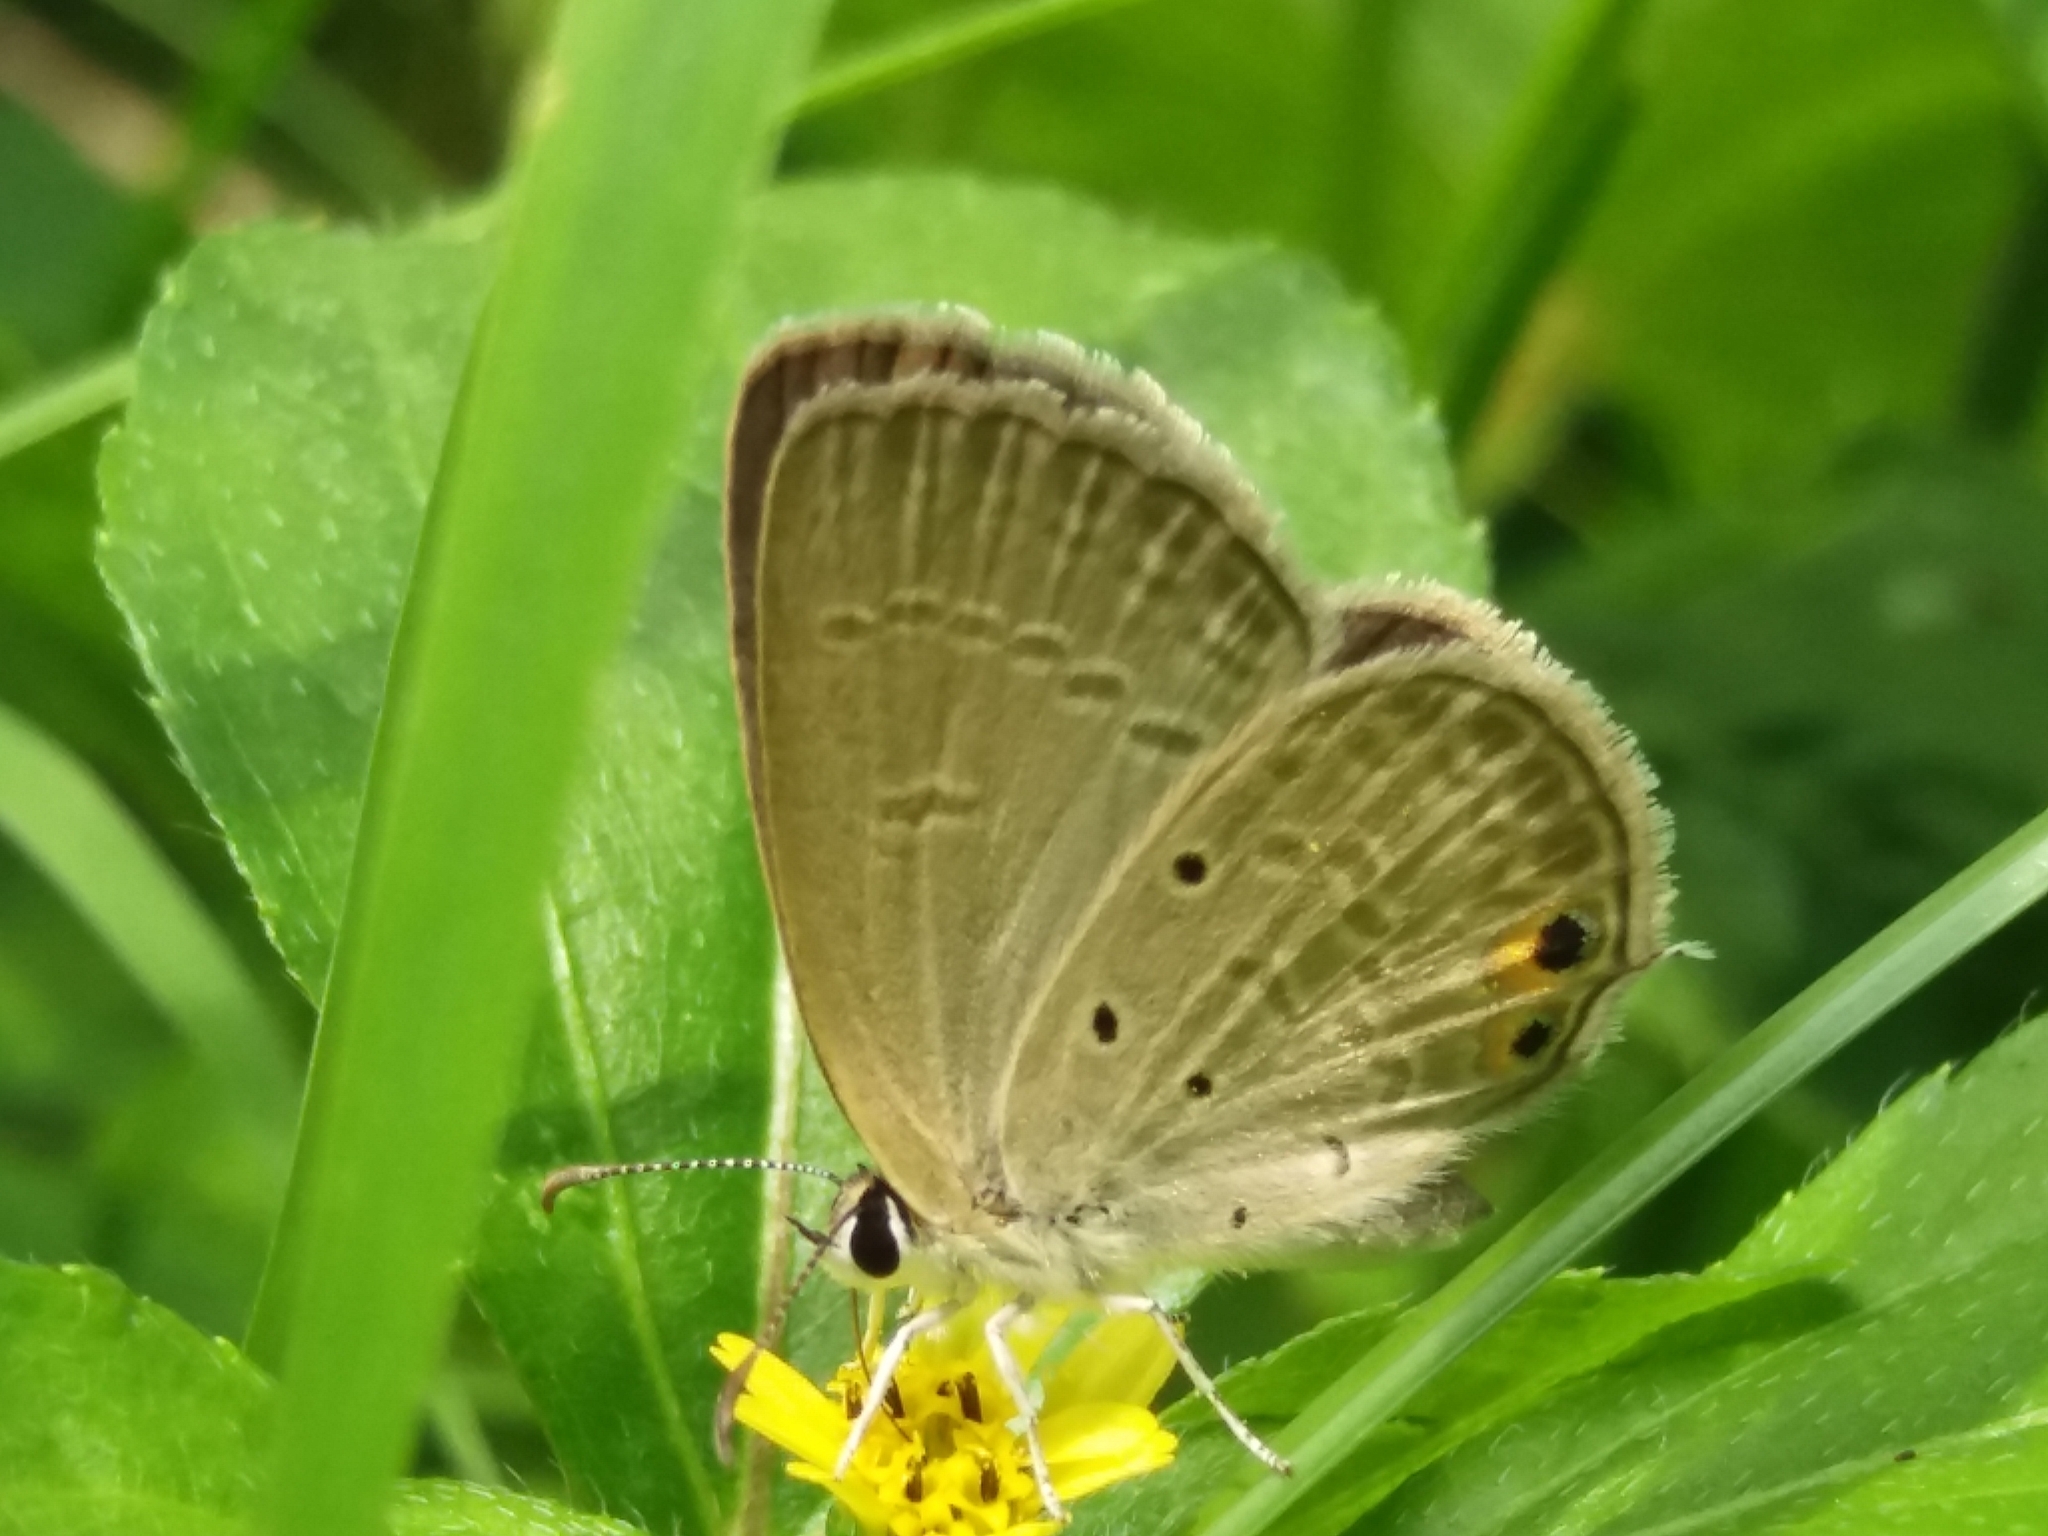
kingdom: Animalia
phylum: Arthropoda
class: Insecta
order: Lepidoptera
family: Lycaenidae
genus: Euchrysops
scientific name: Euchrysops cnejus
